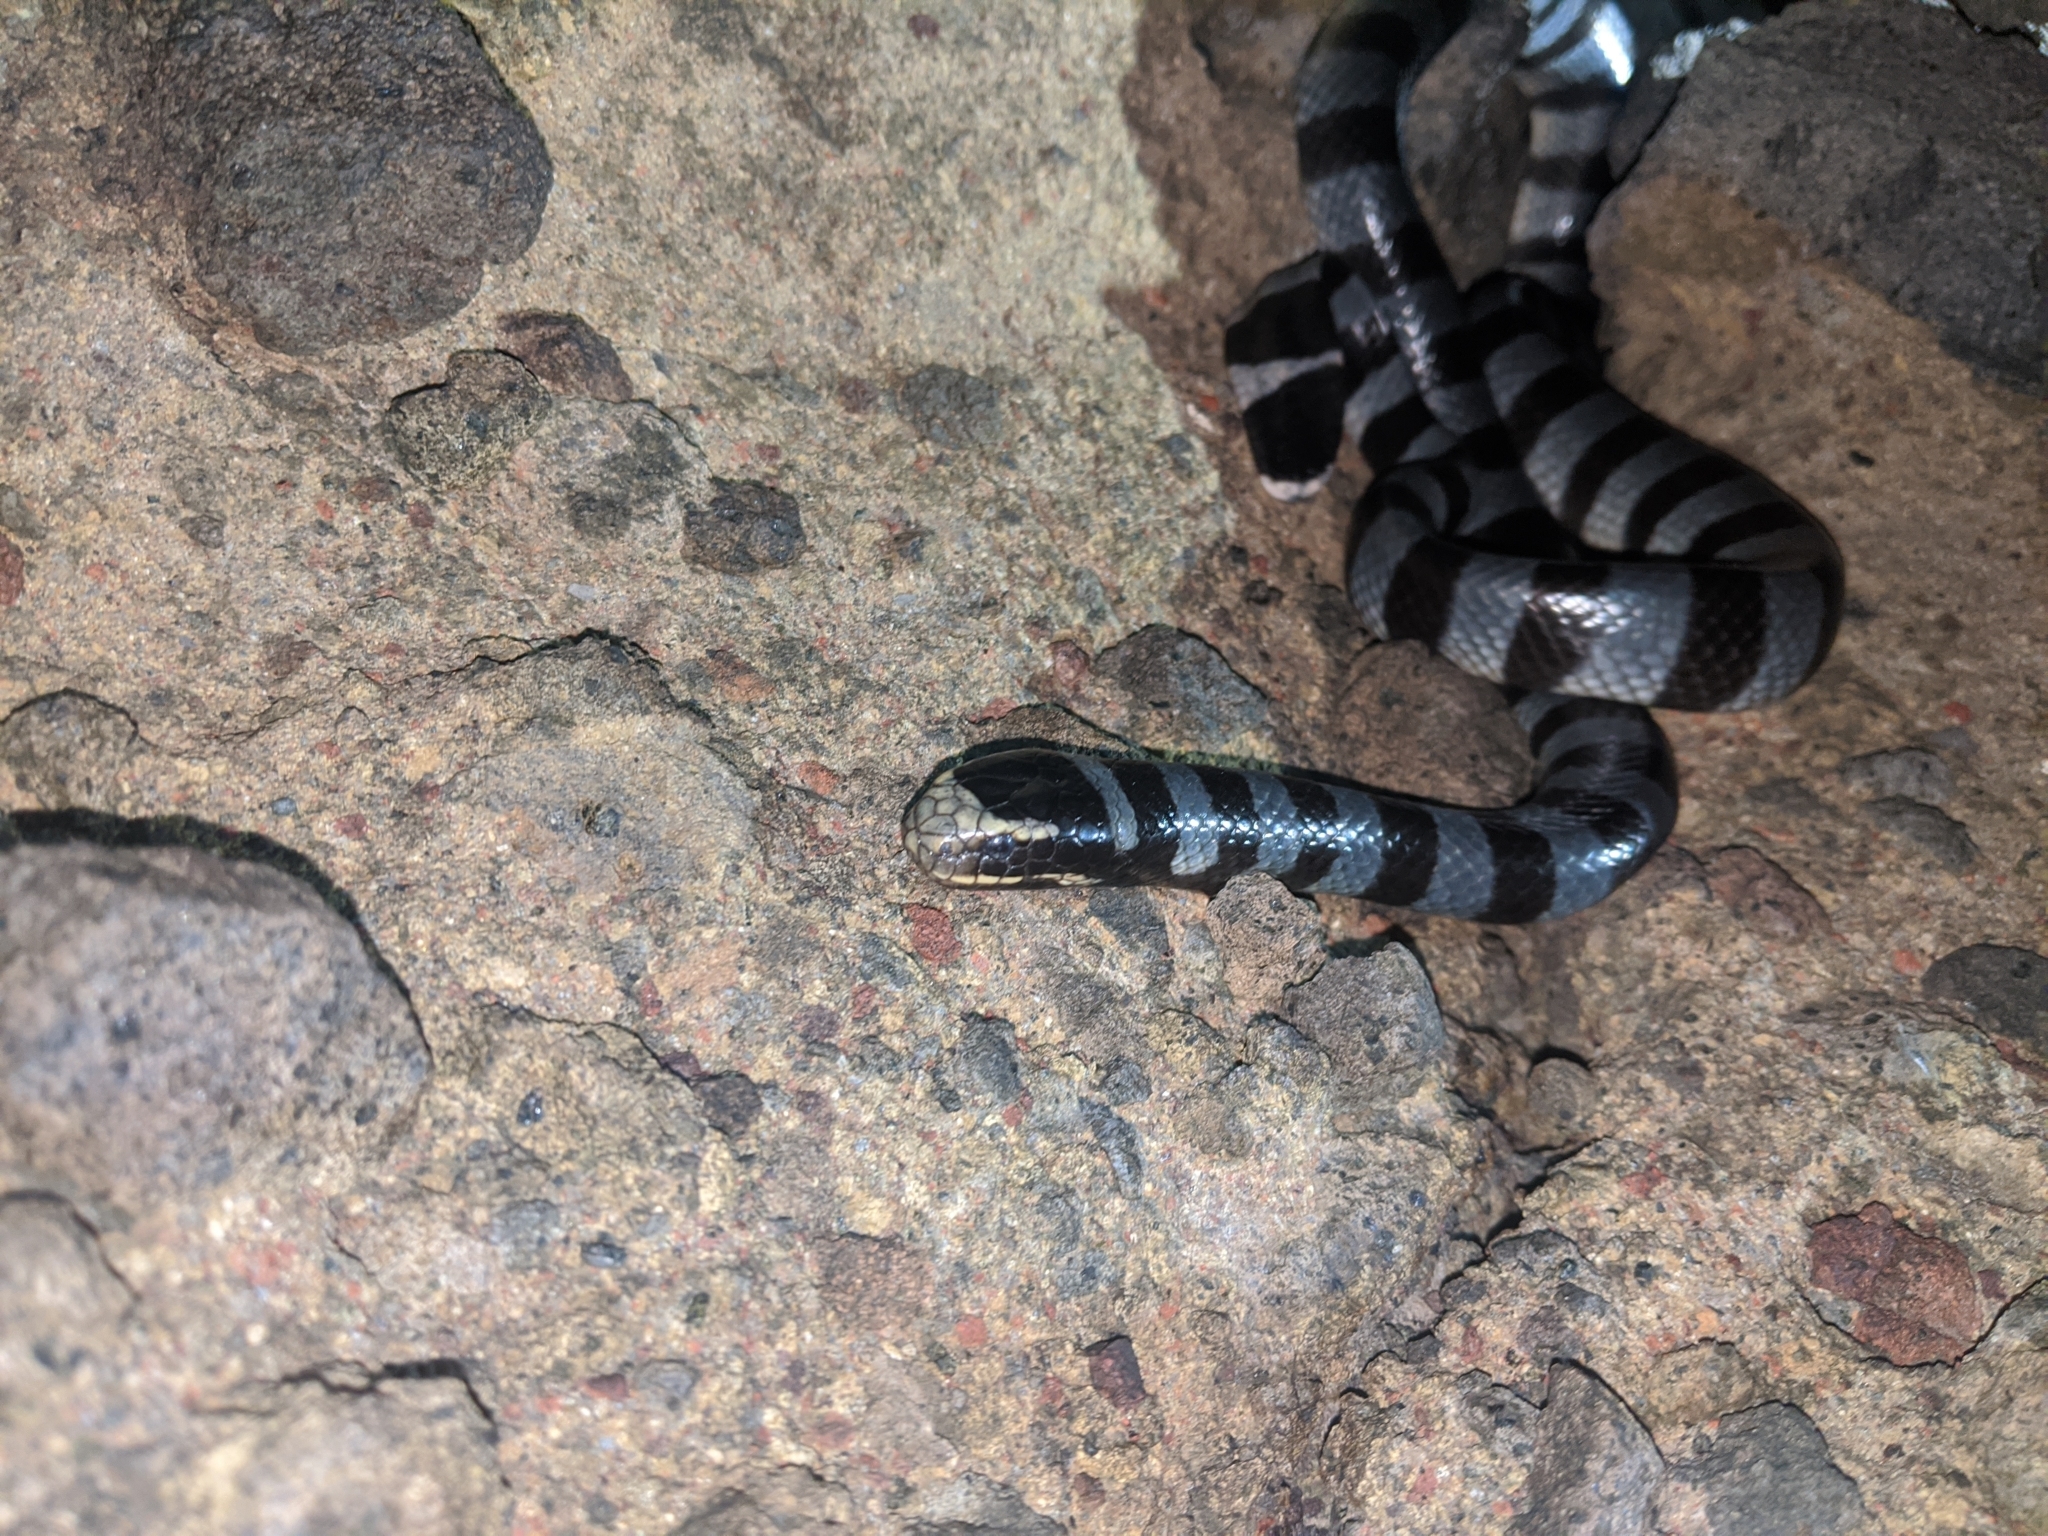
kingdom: Animalia
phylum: Chordata
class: Squamata
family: Elapidae
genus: Laticauda
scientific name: Laticauda colubrina
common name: Yellow-lipped sea krait
